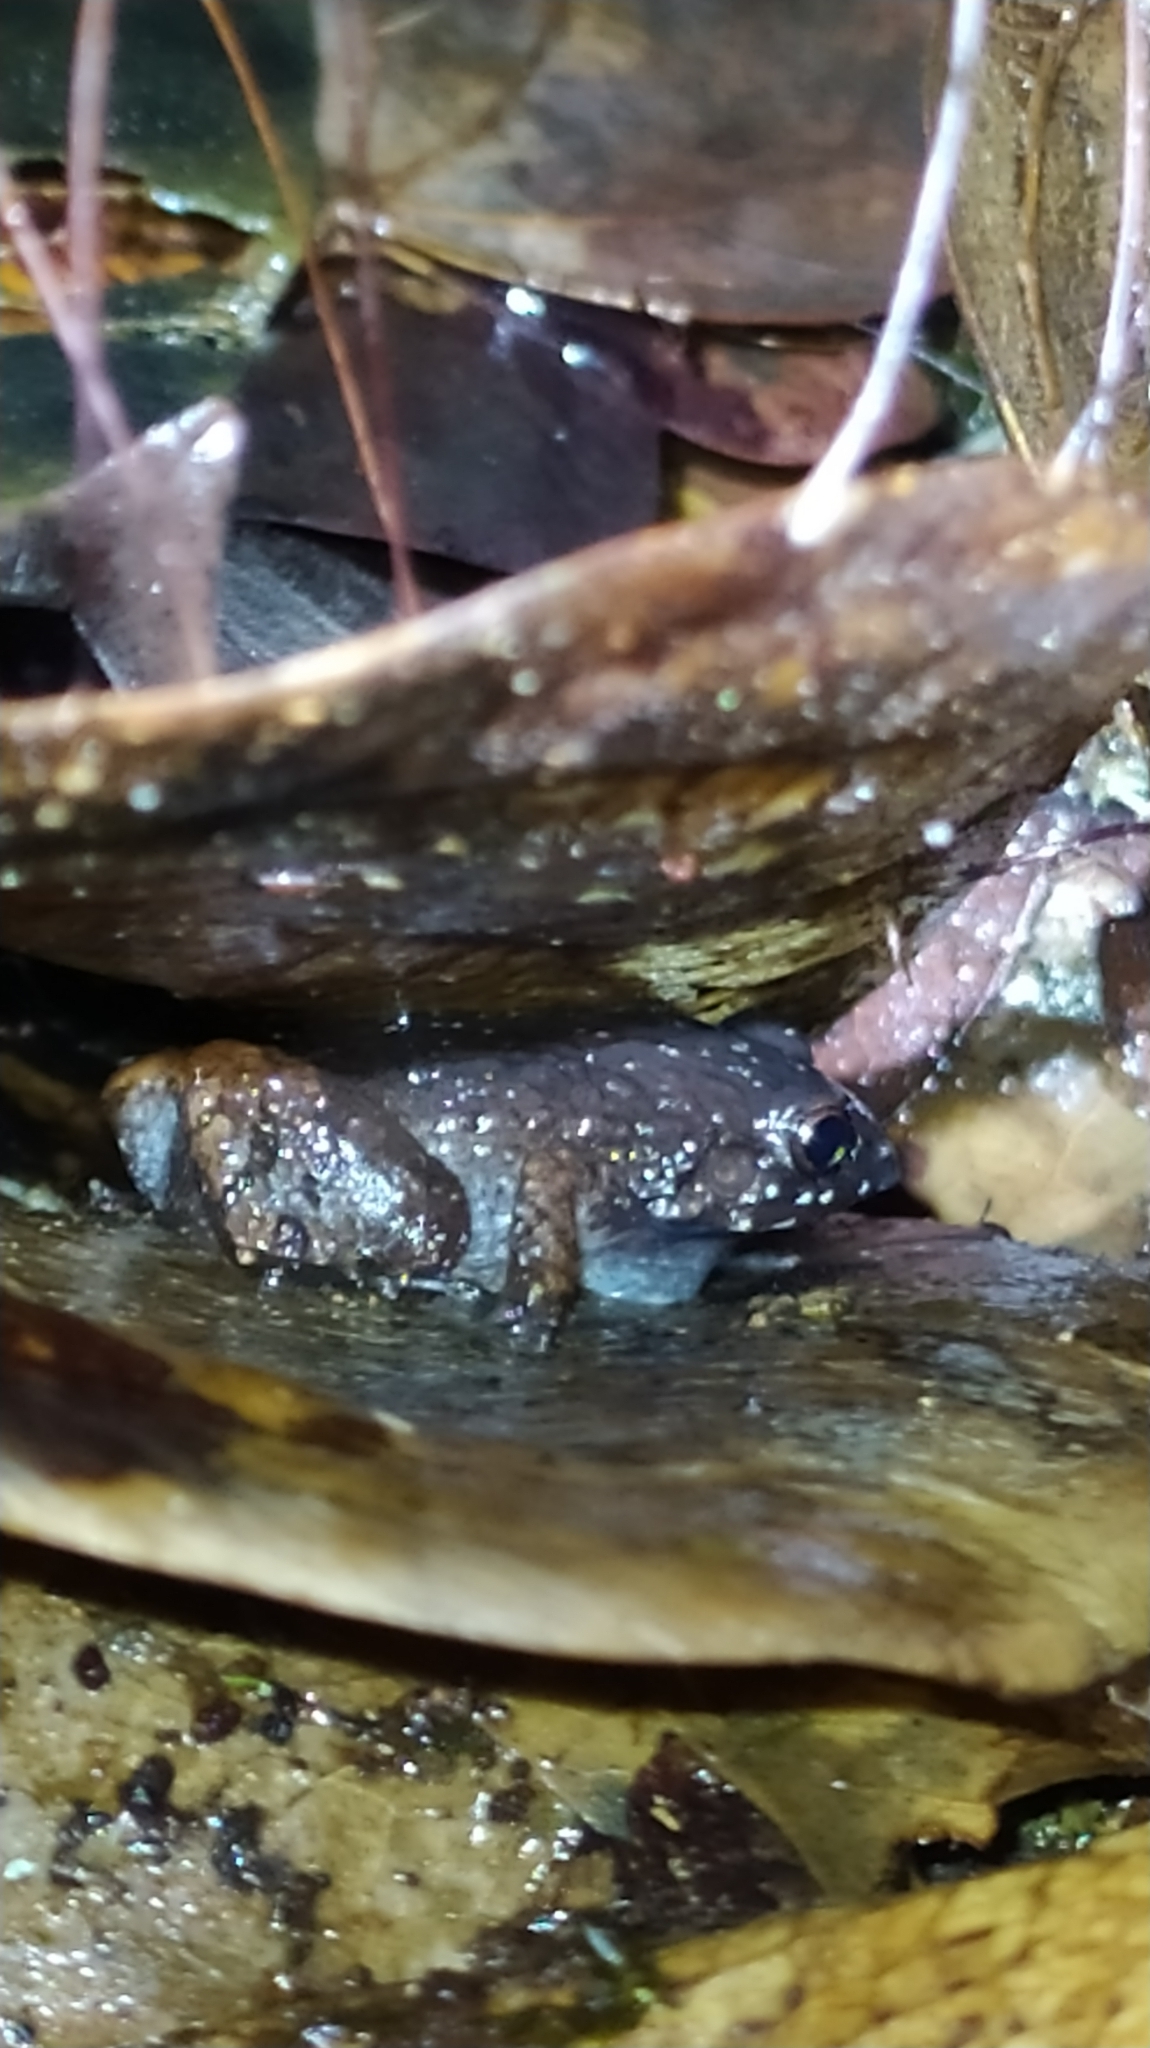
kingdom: Animalia
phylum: Chordata
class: Amphibia
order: Anura
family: Leptodactylidae
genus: Adenomera
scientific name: Adenomera heyeri
